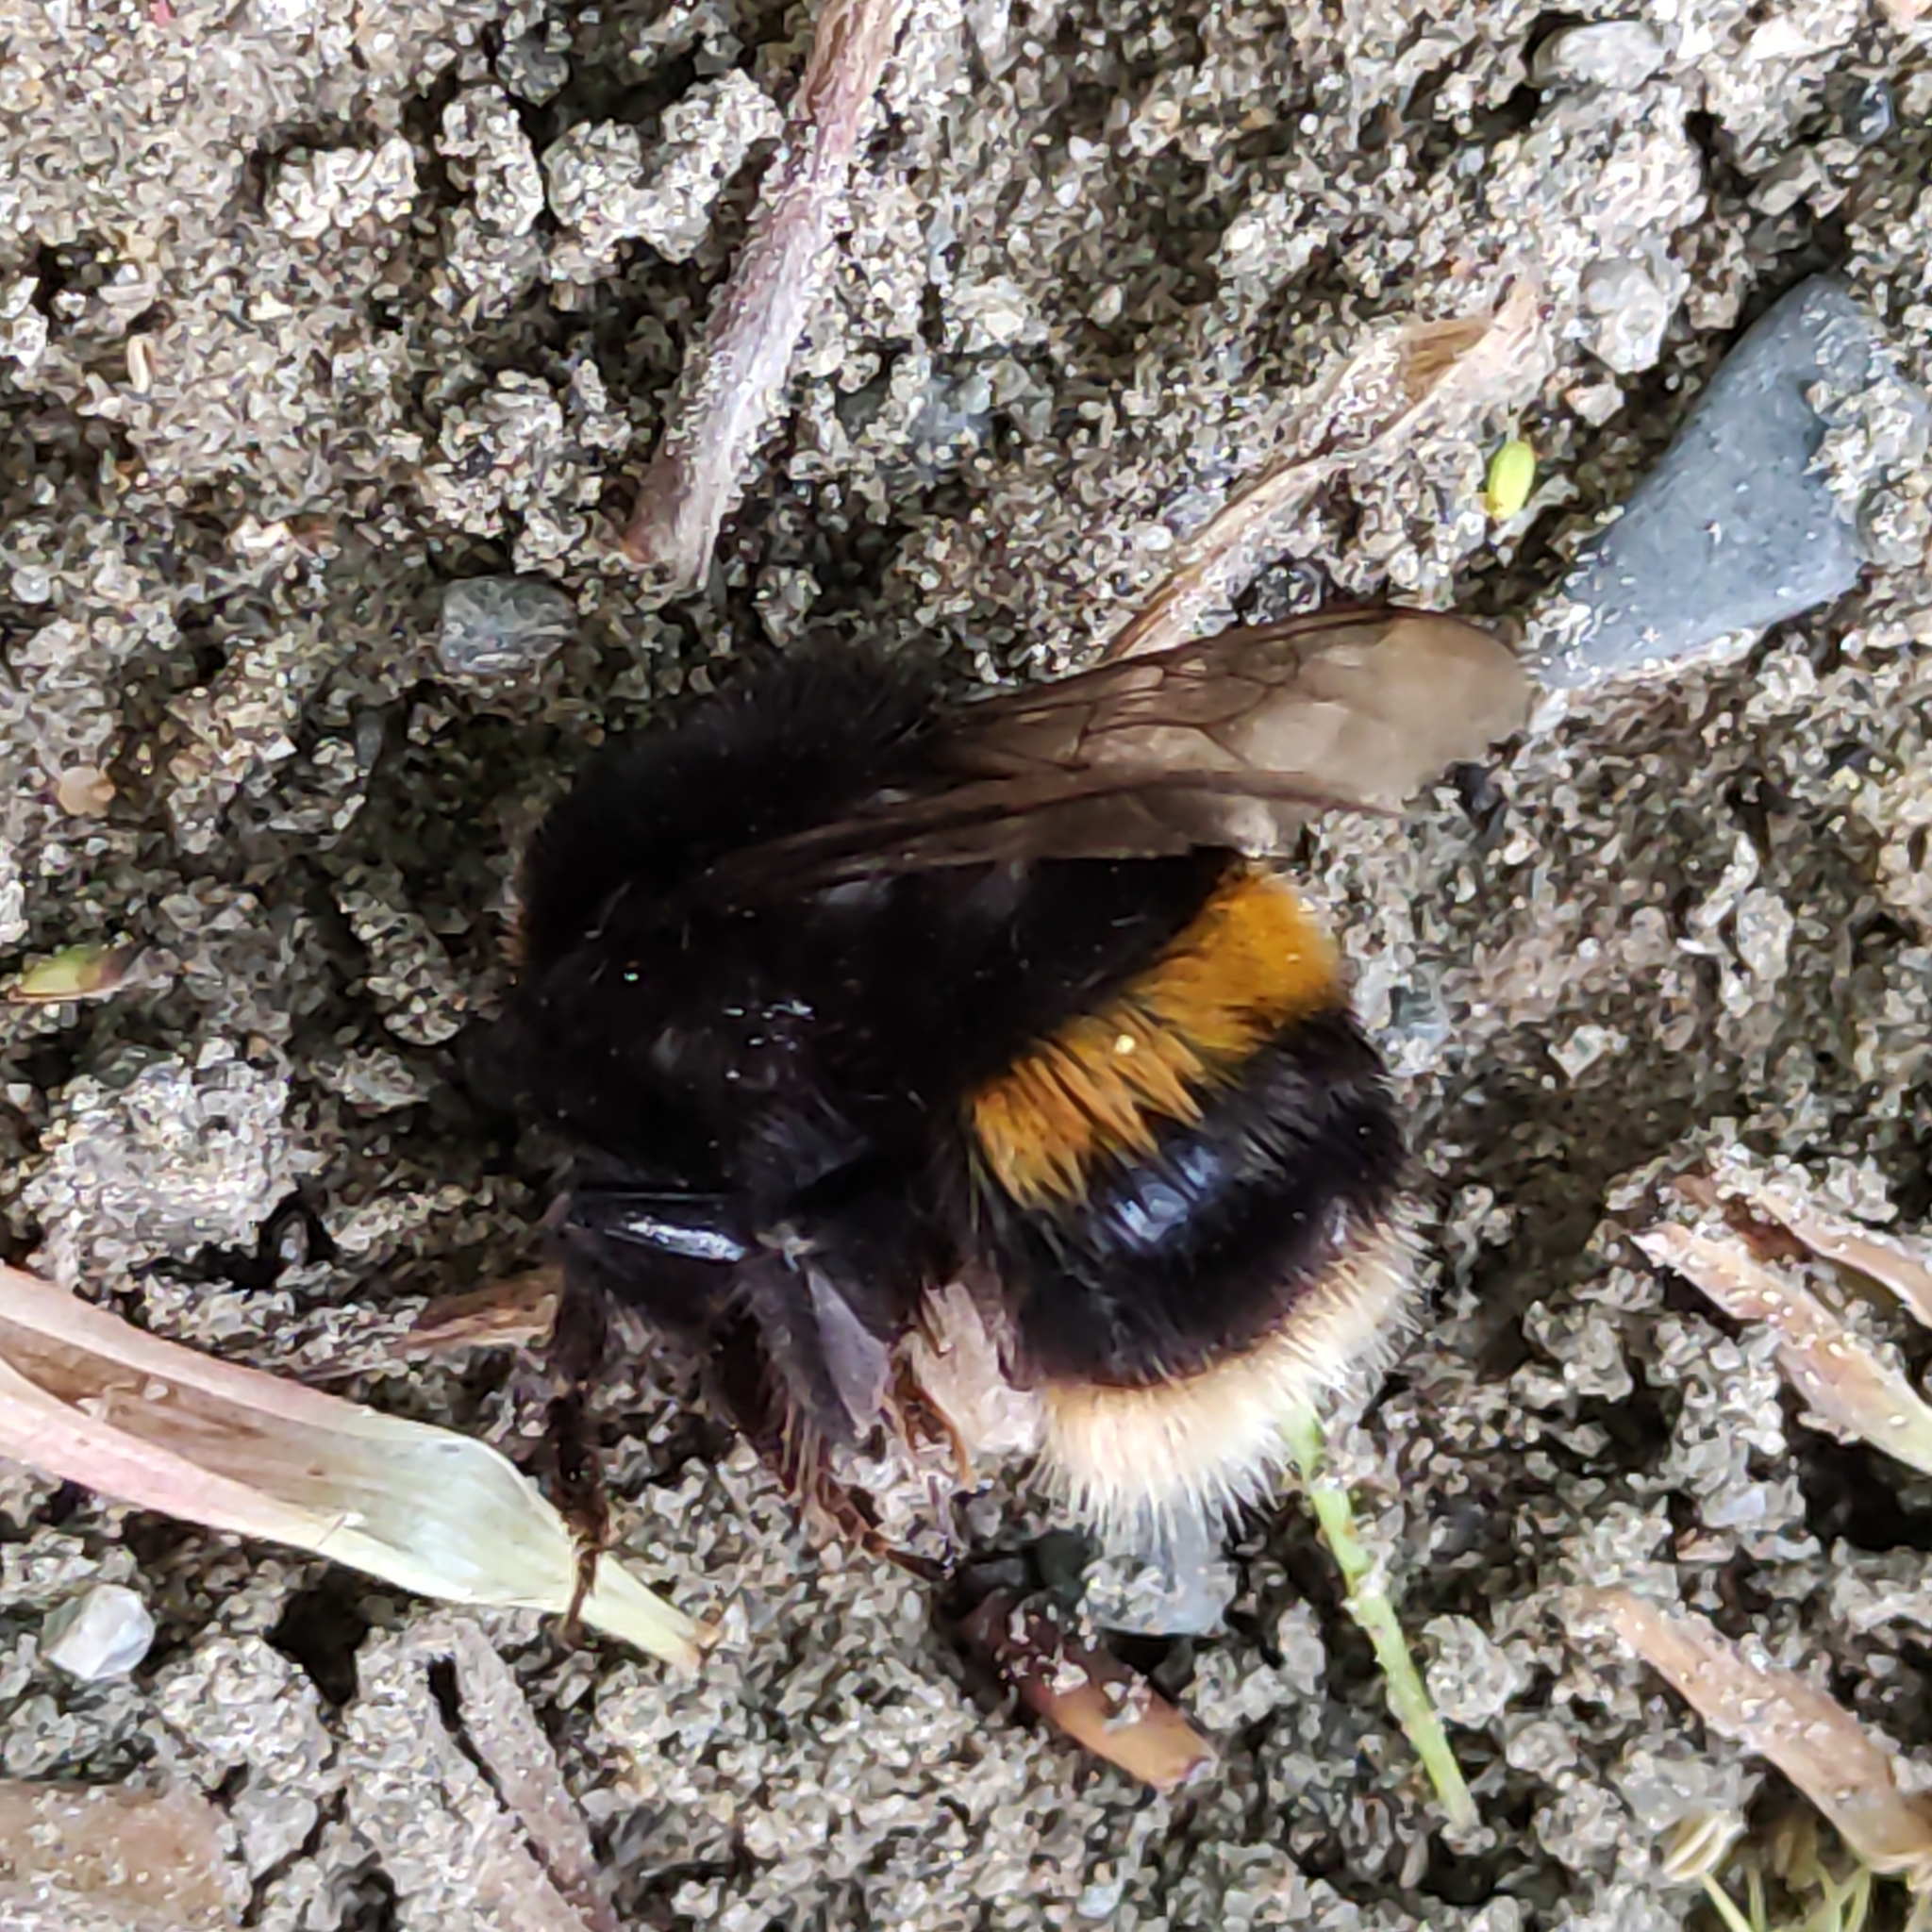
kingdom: Animalia
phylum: Arthropoda
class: Insecta
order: Hymenoptera
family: Apidae
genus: Bombus
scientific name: Bombus terrestris
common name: Buff-tailed bumblebee
